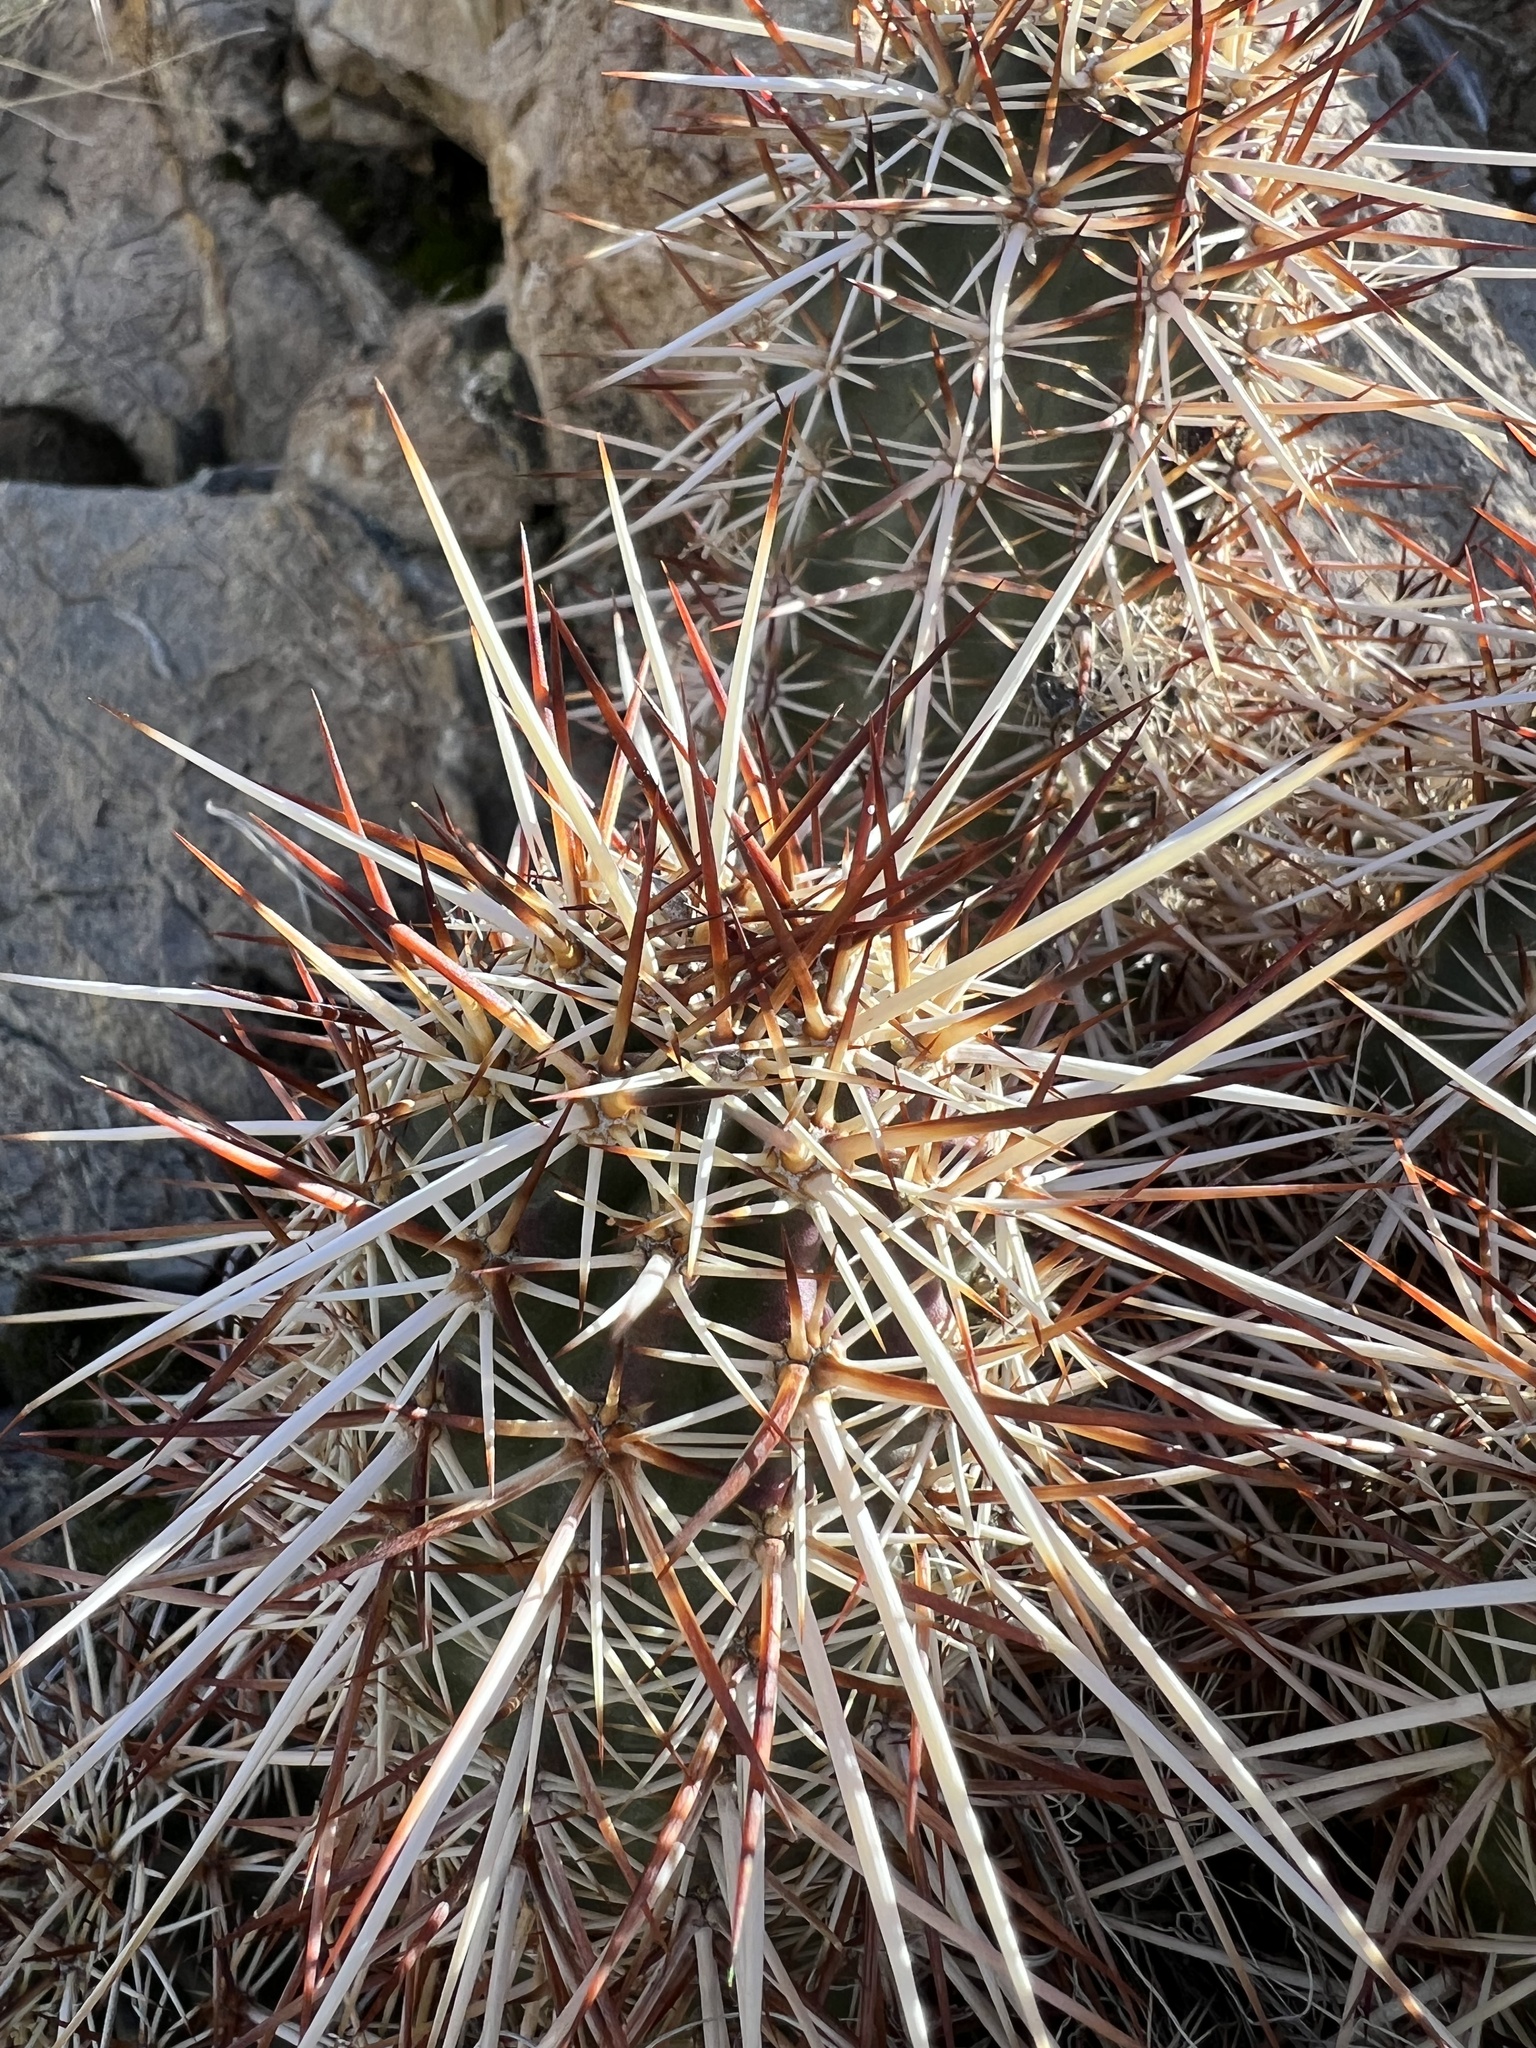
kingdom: Plantae
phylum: Tracheophyta
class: Magnoliopsida
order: Caryophyllales
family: Cactaceae
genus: Echinocereus
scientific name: Echinocereus engelmannii
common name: Engelmann's hedgehog cactus
